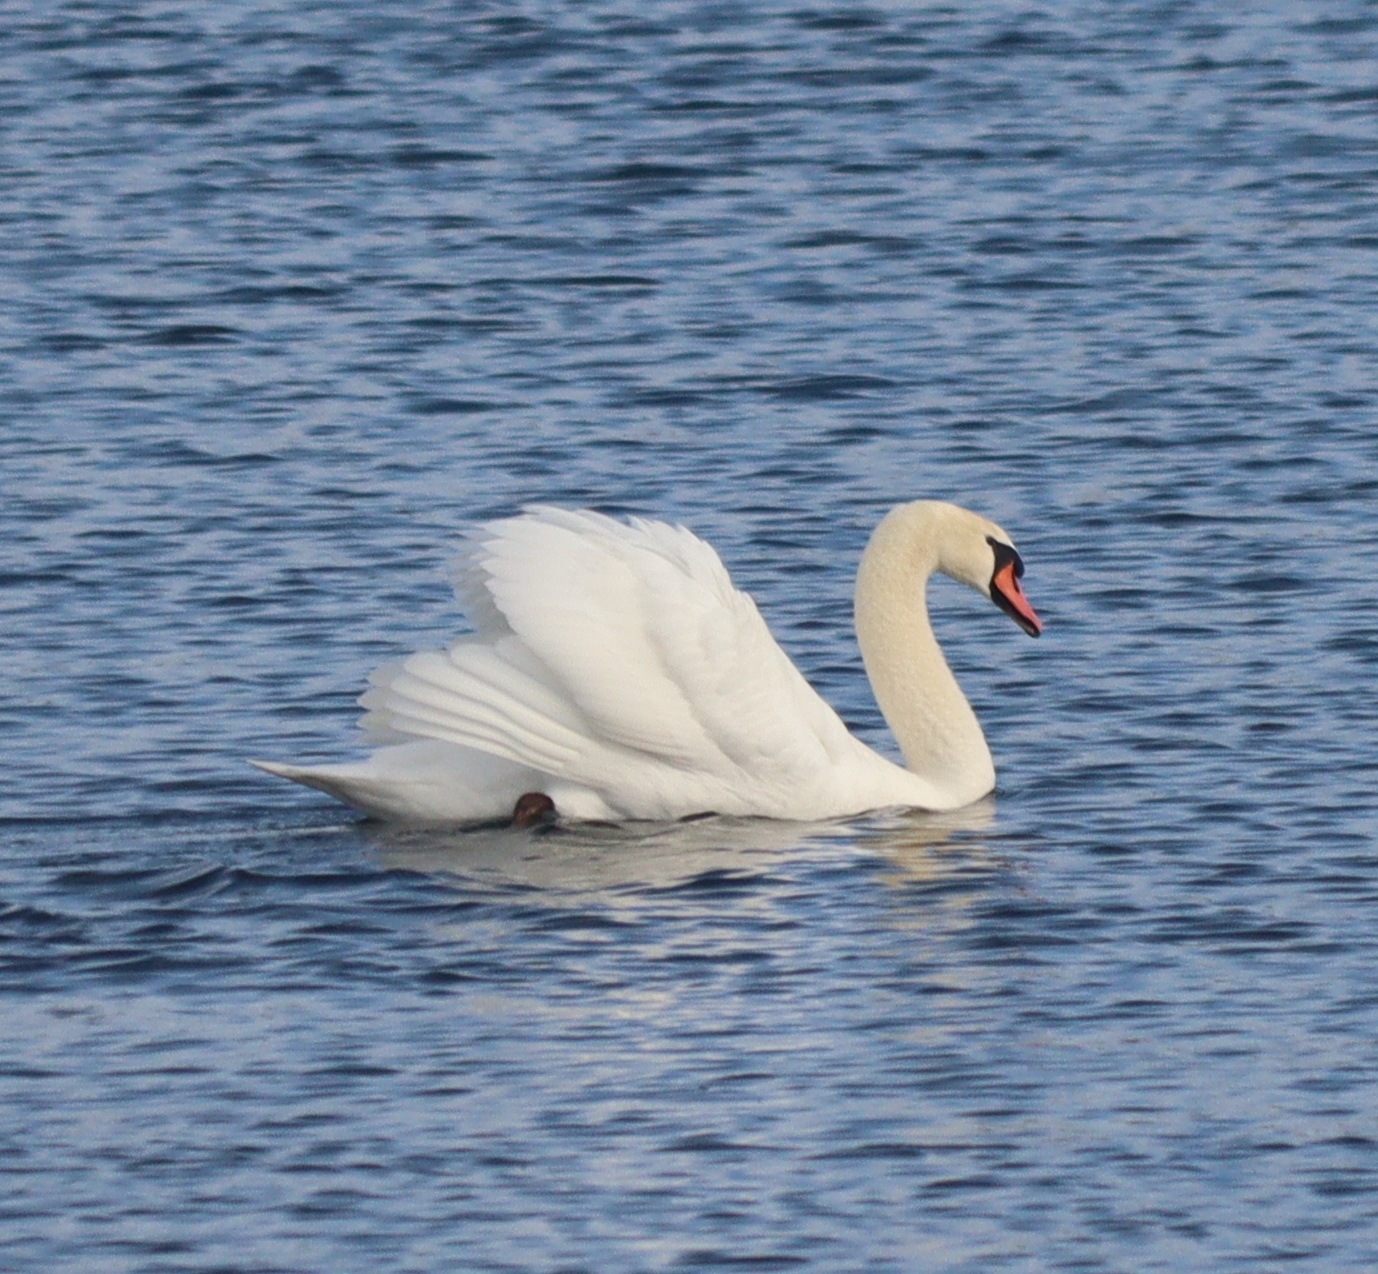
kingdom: Animalia
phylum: Chordata
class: Aves
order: Anseriformes
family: Anatidae
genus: Cygnus
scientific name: Cygnus olor
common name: Mute swan
